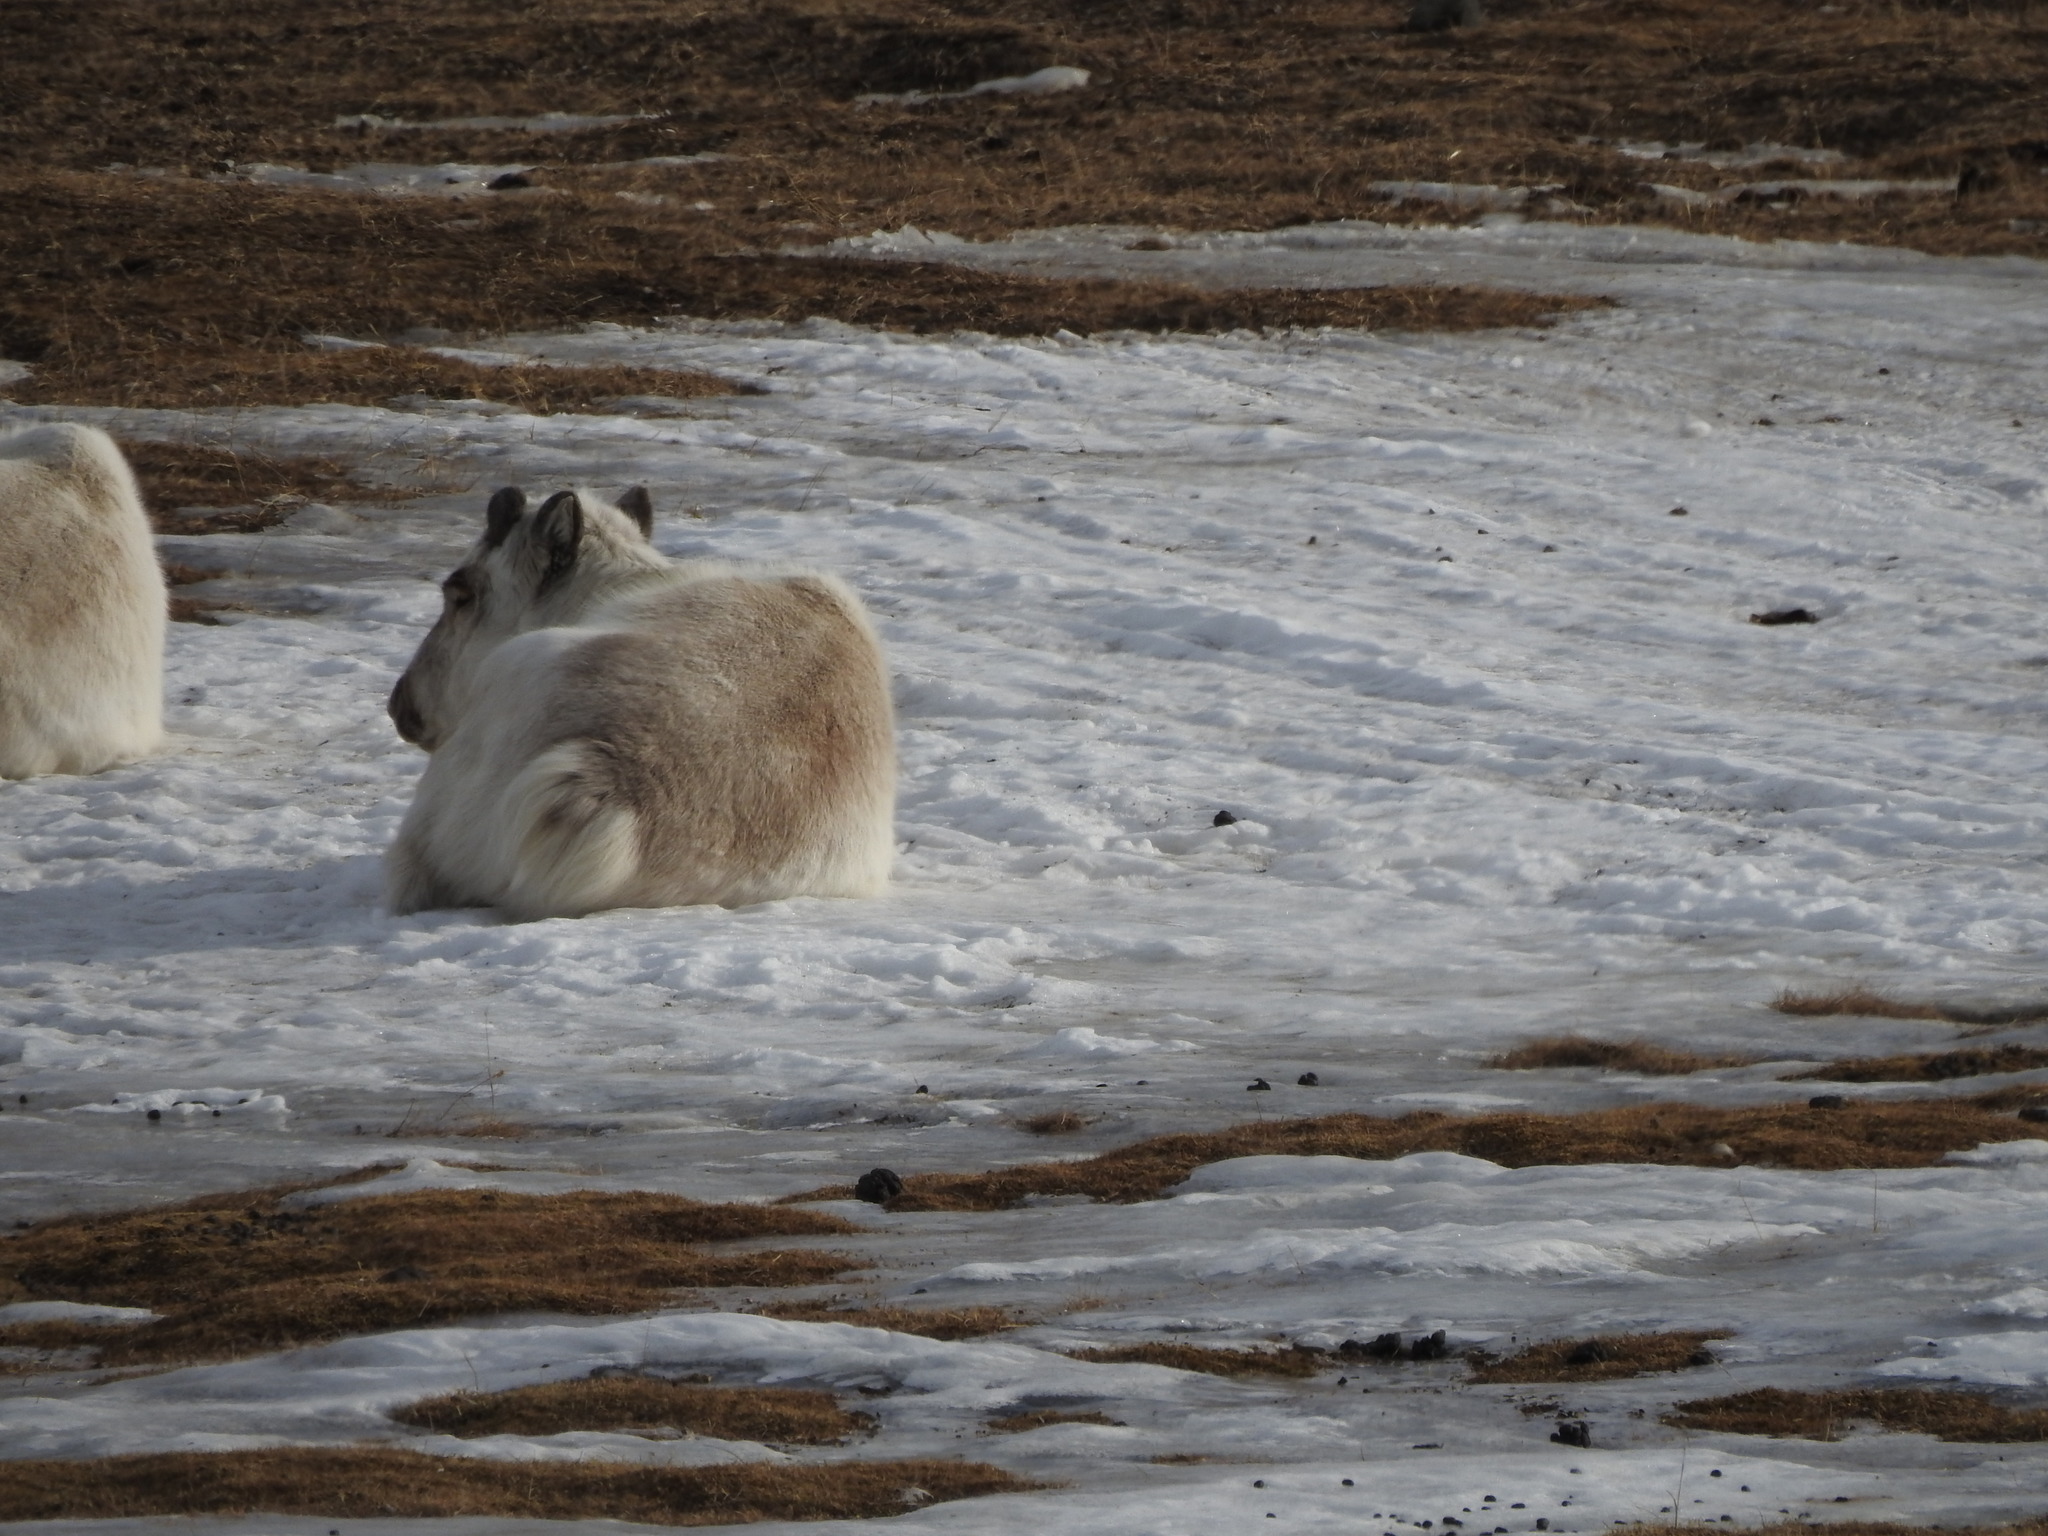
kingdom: Animalia
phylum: Chordata
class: Mammalia
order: Artiodactyla
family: Cervidae
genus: Rangifer
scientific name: Rangifer tarandus
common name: Reindeer
